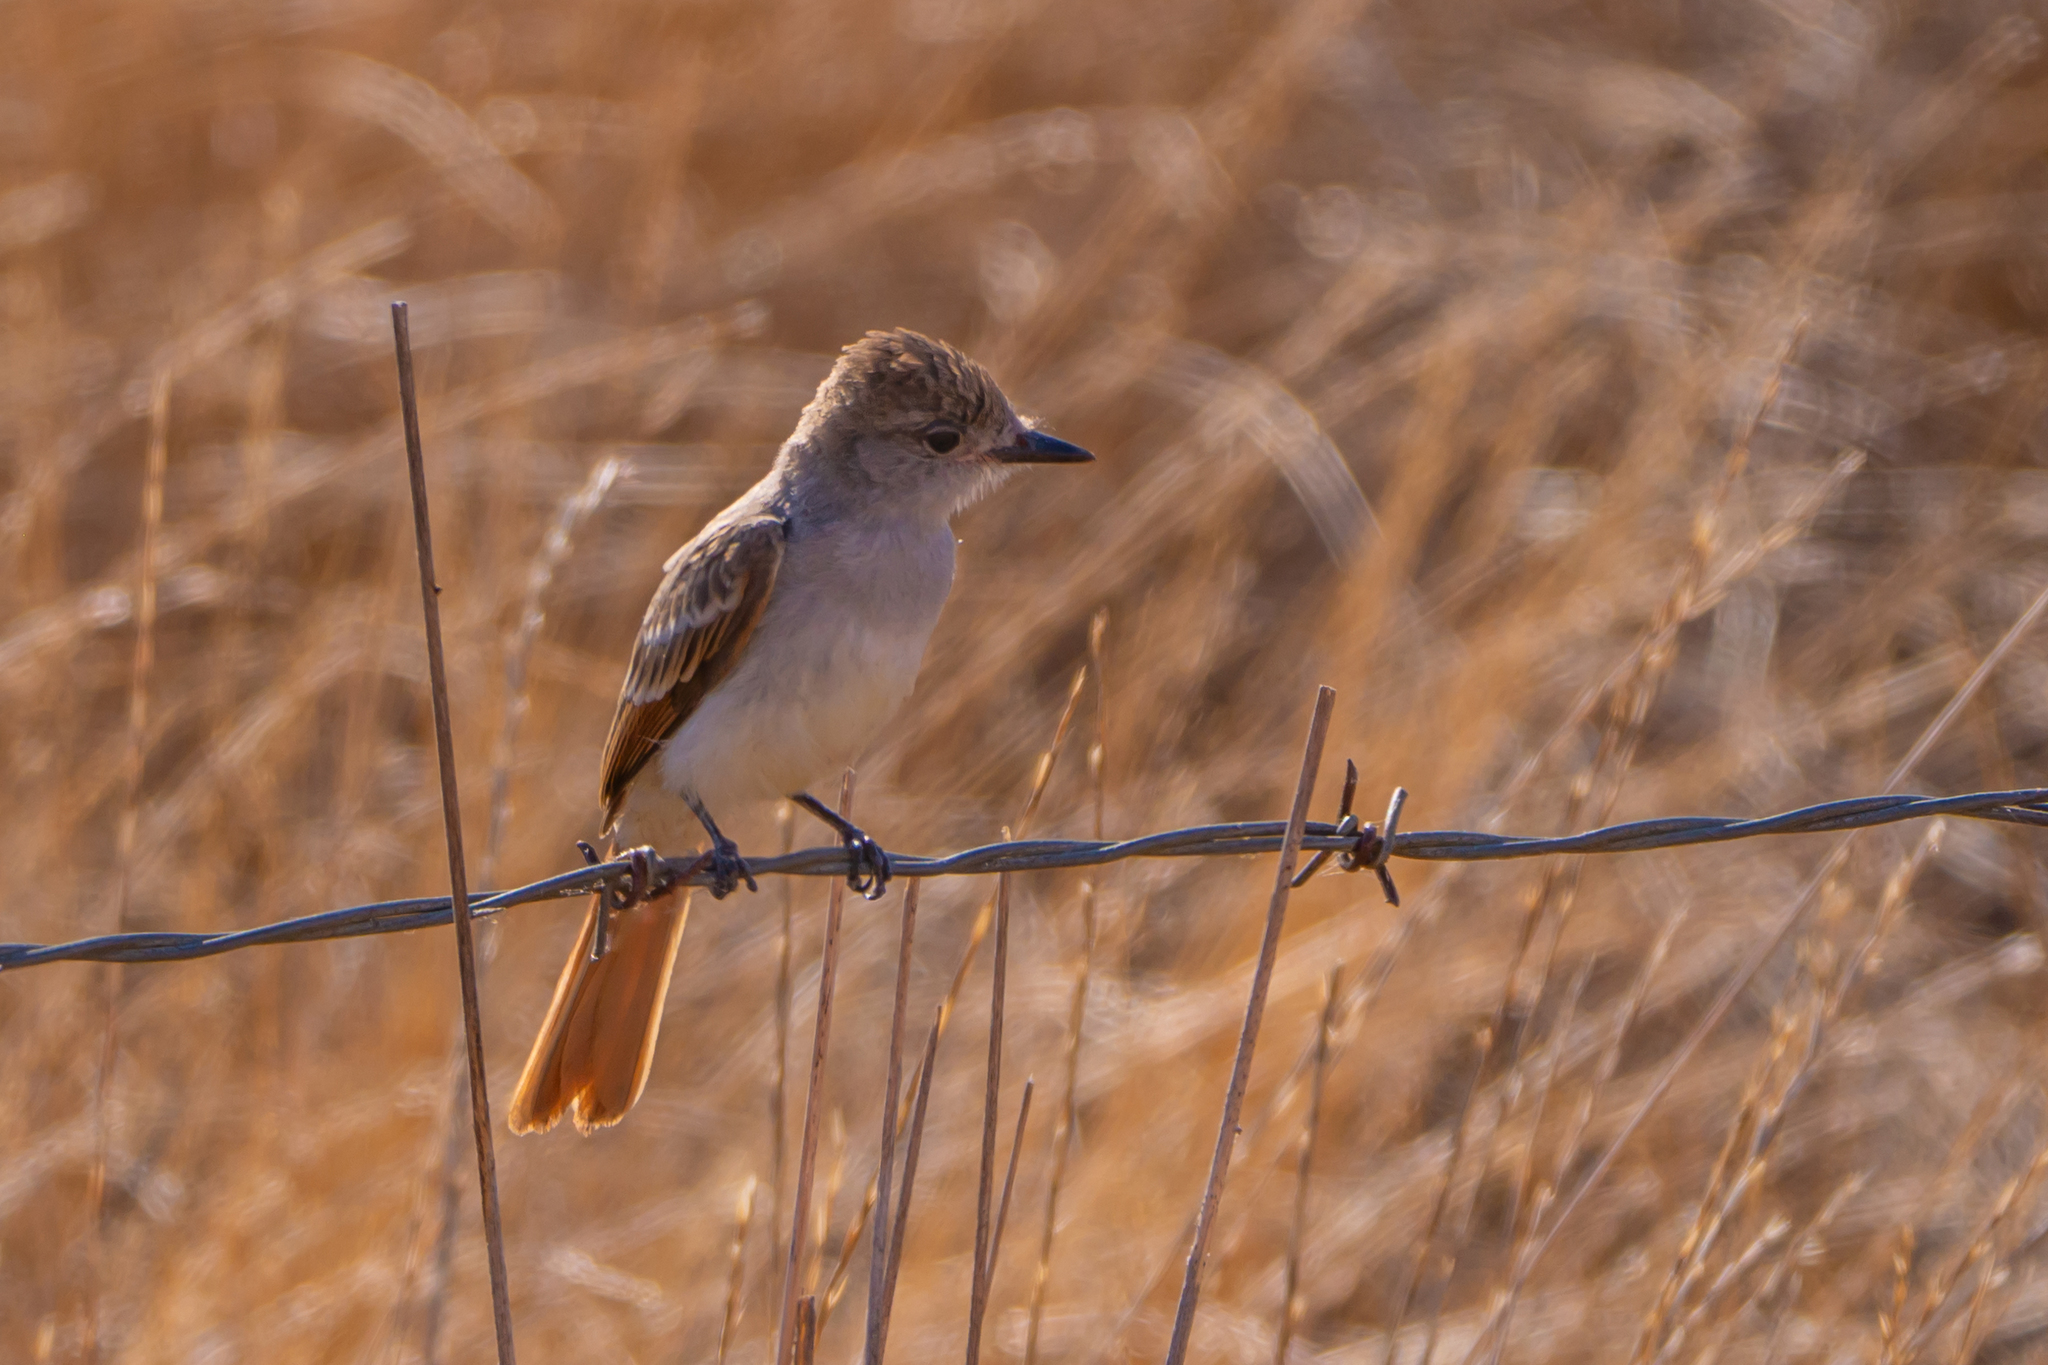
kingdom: Animalia
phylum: Chordata
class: Aves
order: Passeriformes
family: Tyrannidae
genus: Myiarchus
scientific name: Myiarchus cinerascens
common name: Ash-throated flycatcher
